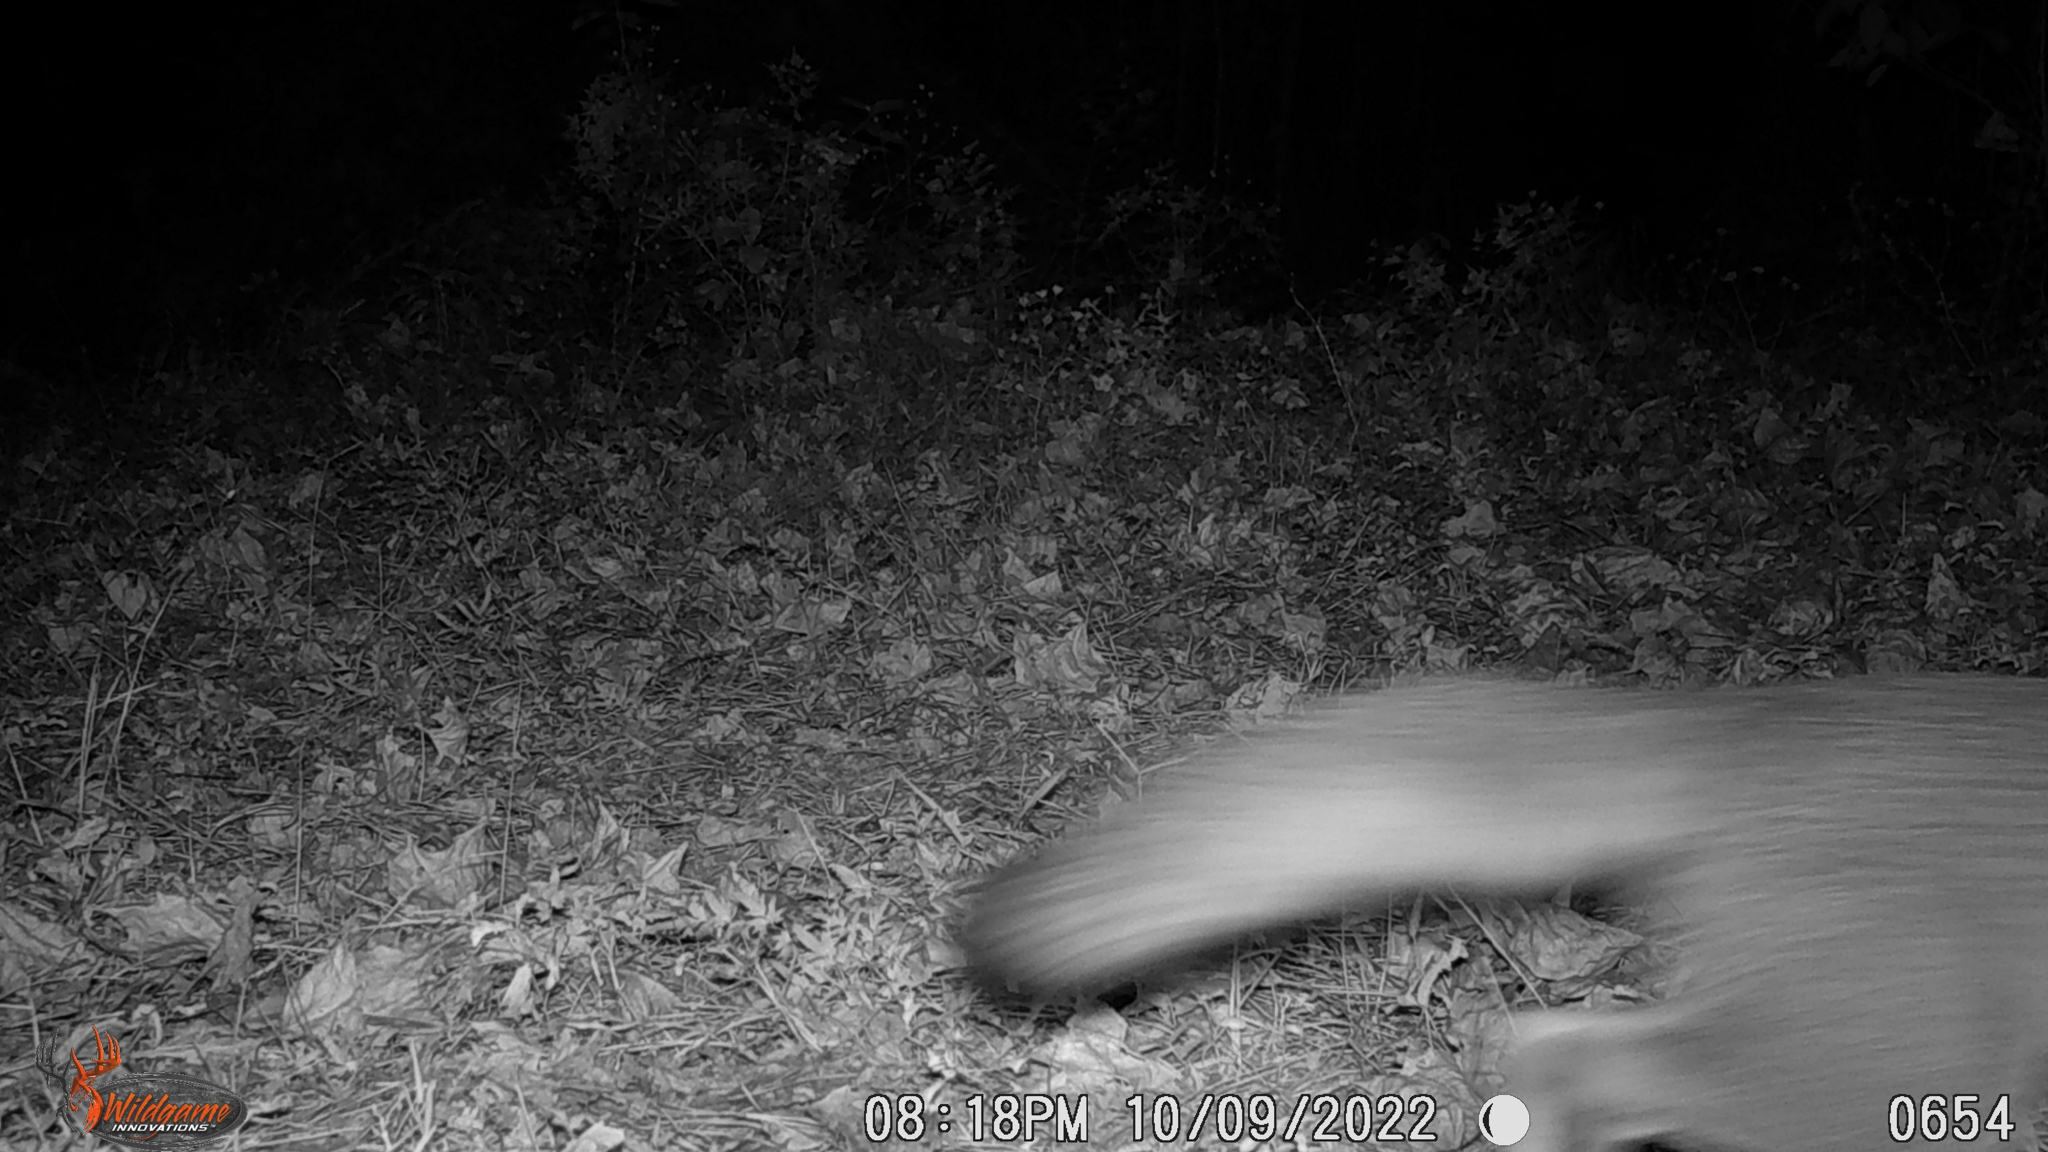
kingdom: Animalia
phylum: Chordata
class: Mammalia
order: Carnivora
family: Canidae
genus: Urocyon
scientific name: Urocyon cinereoargenteus
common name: Gray fox
